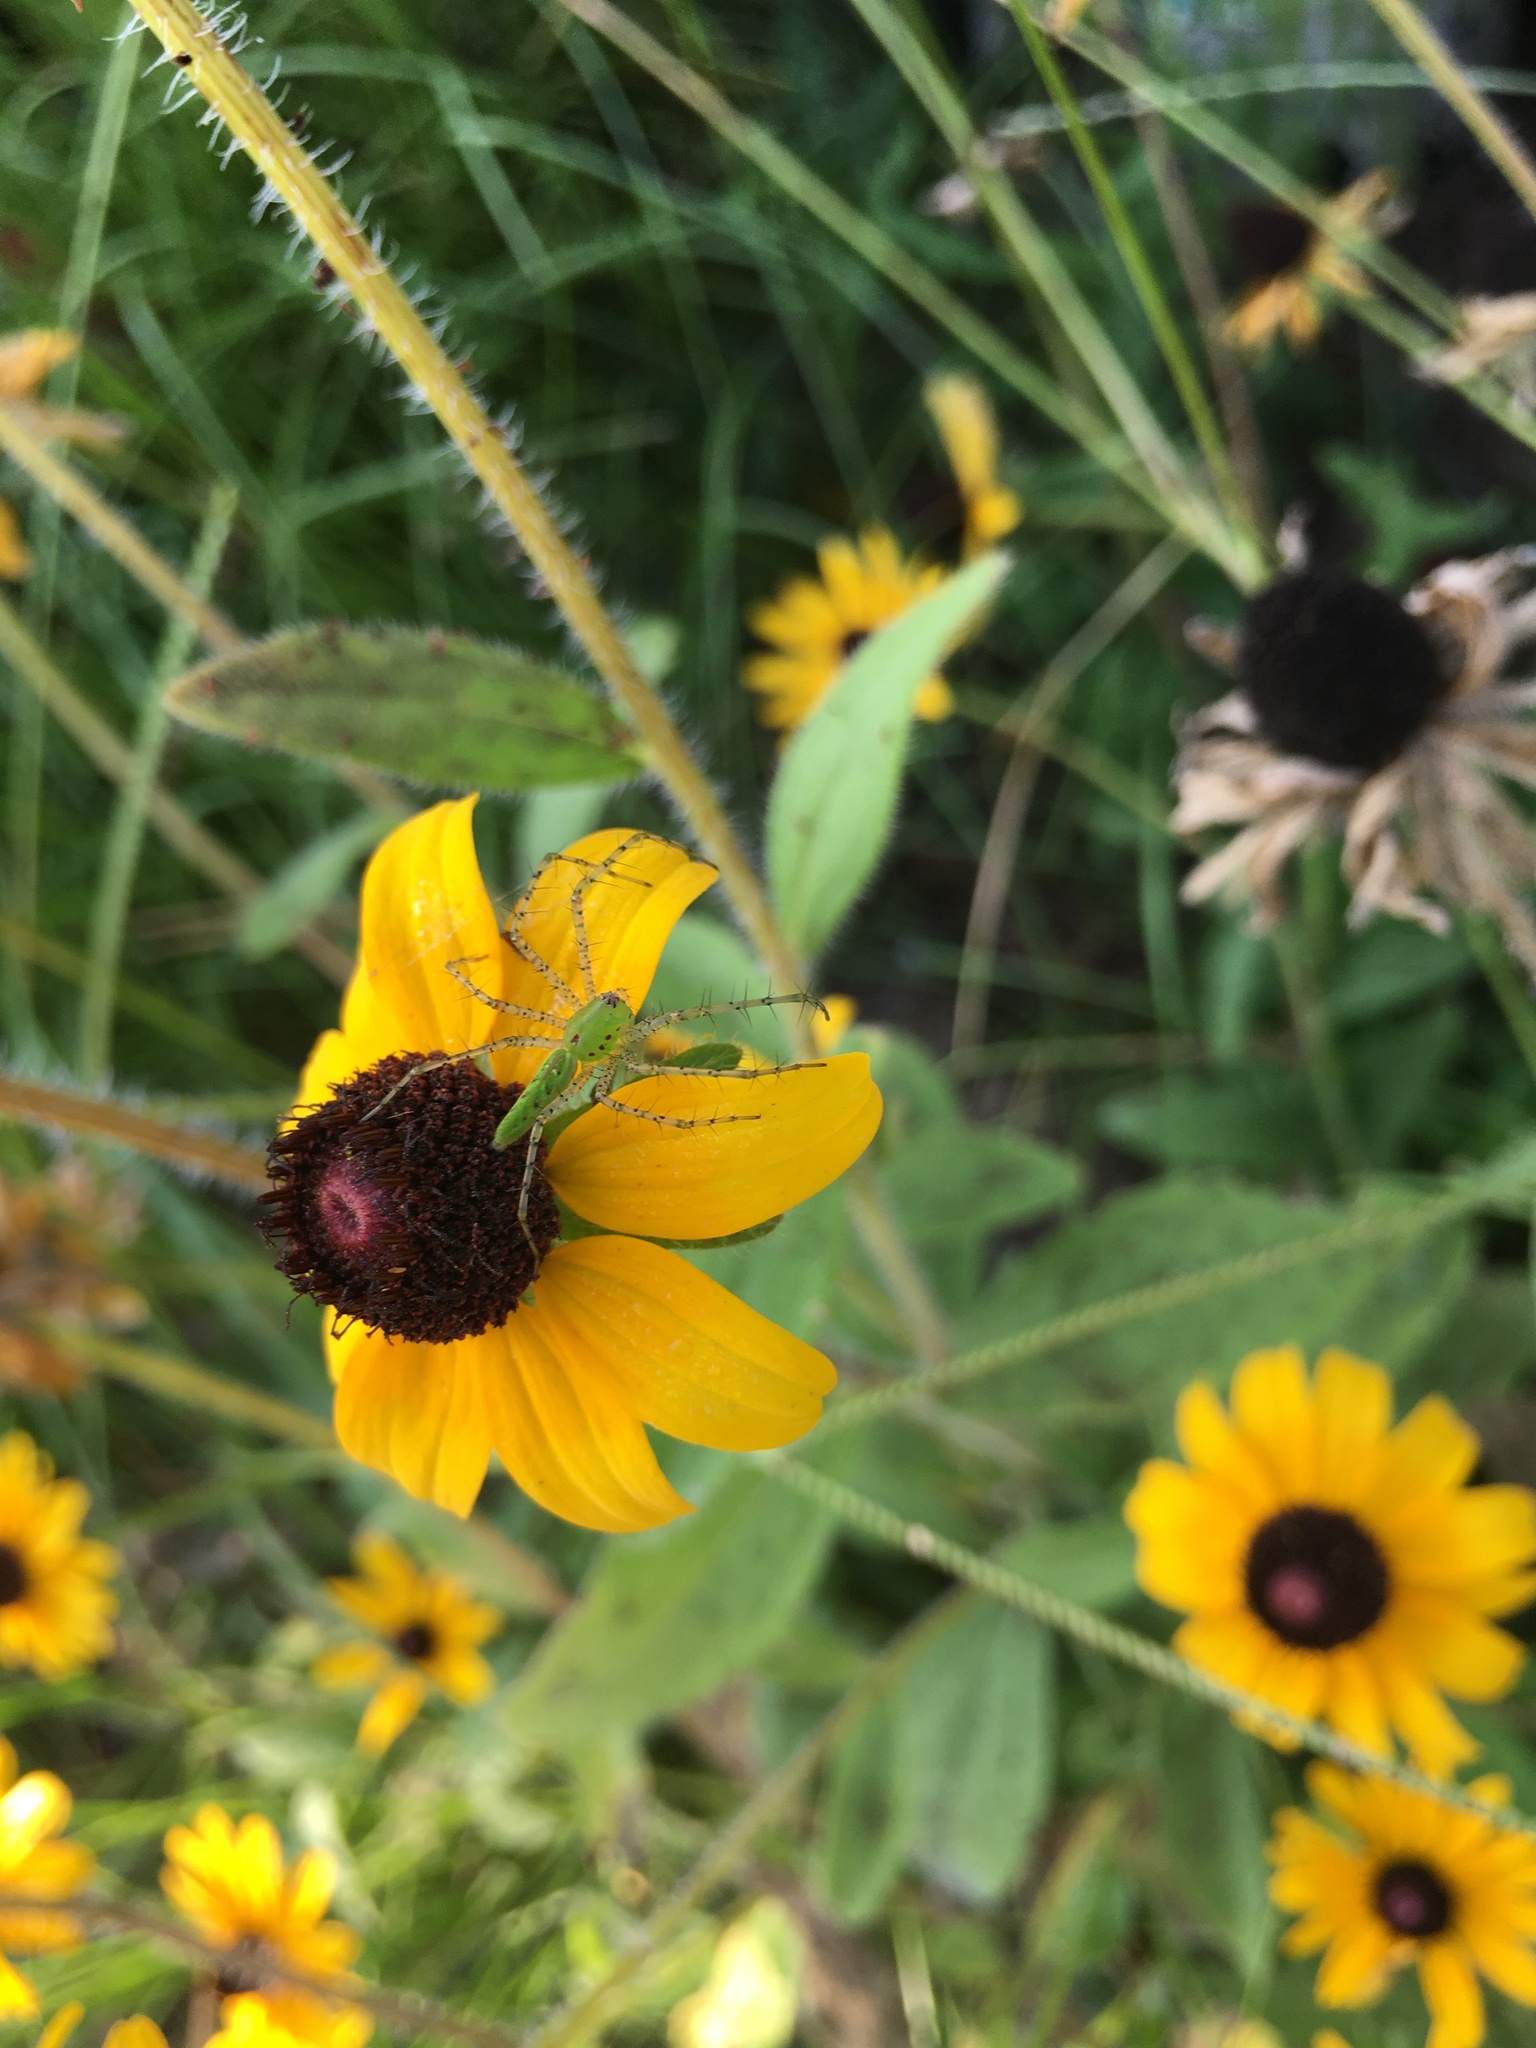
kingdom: Animalia
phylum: Arthropoda
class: Arachnida
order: Araneae
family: Oxyopidae
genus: Peucetia
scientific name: Peucetia viridans
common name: Lynx spiders
